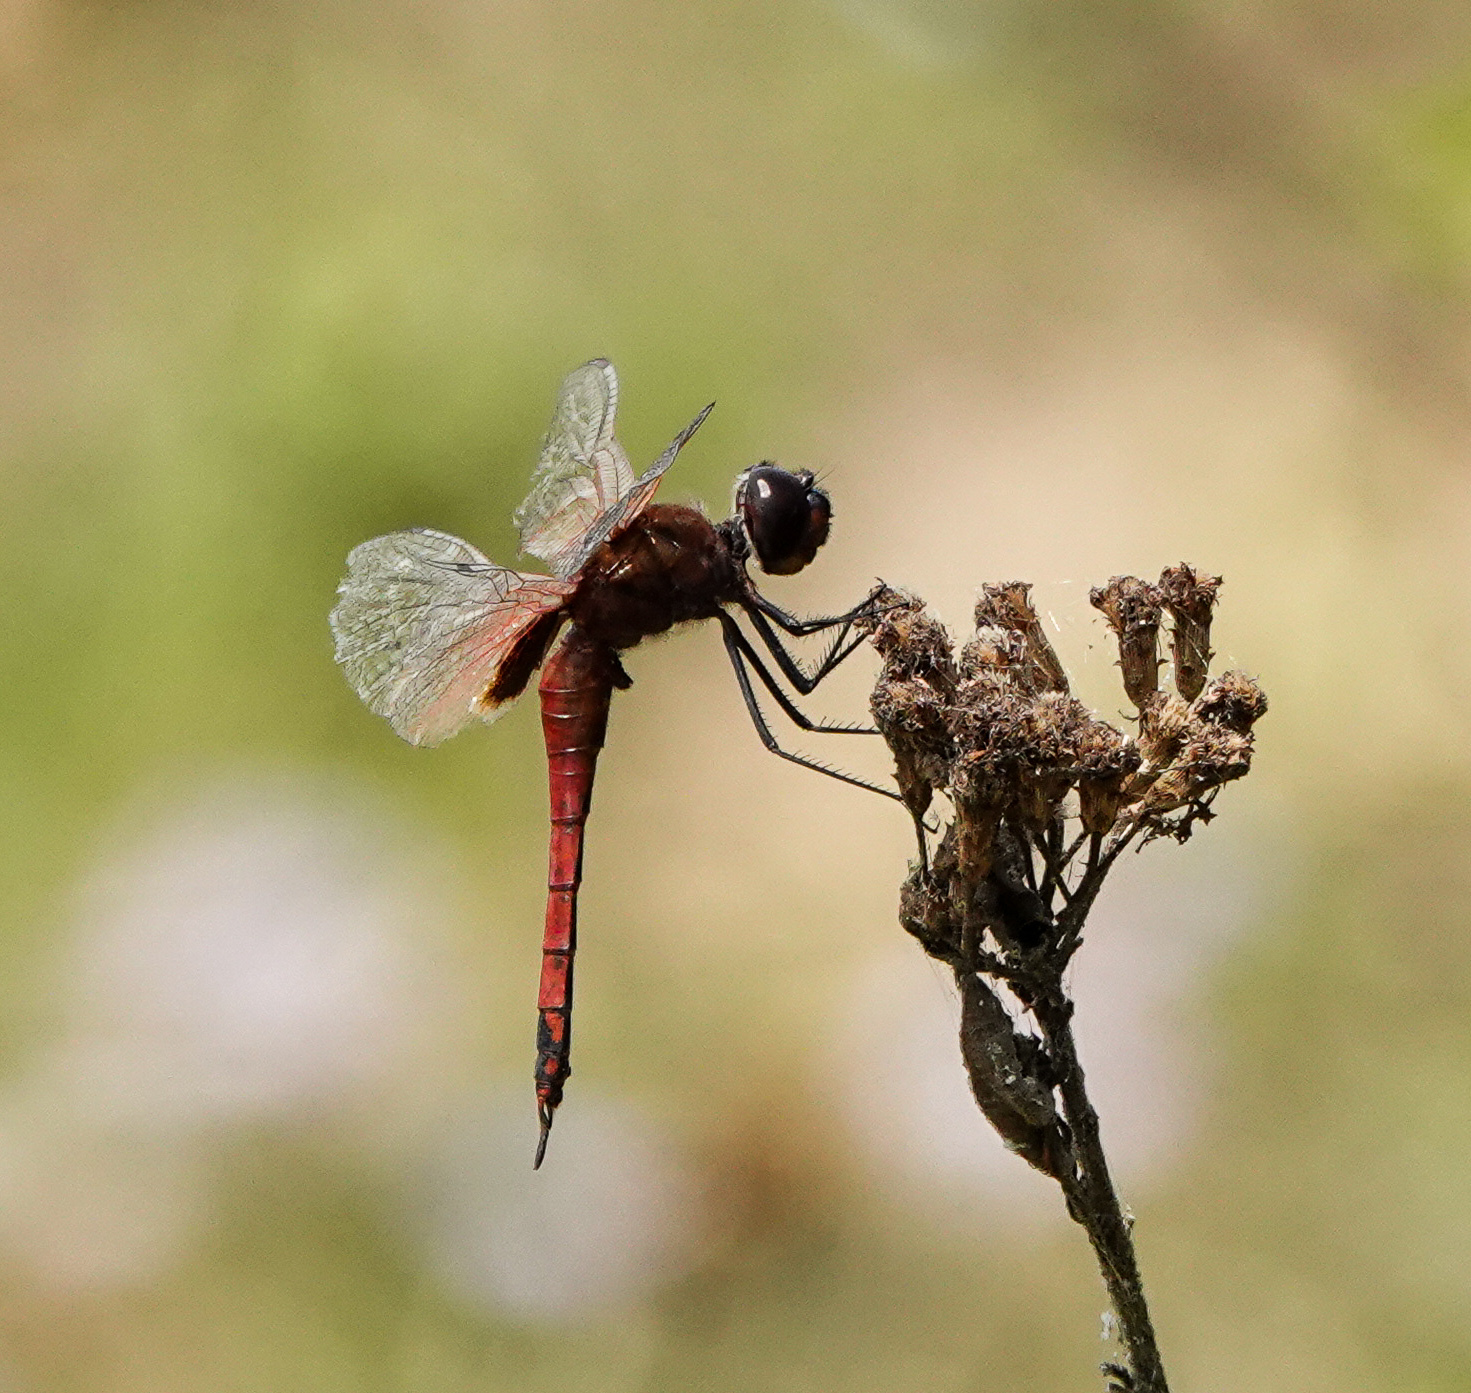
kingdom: Animalia
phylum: Arthropoda
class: Insecta
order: Odonata
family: Libellulidae
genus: Tramea
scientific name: Tramea limbata
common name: Ferruginous glider
